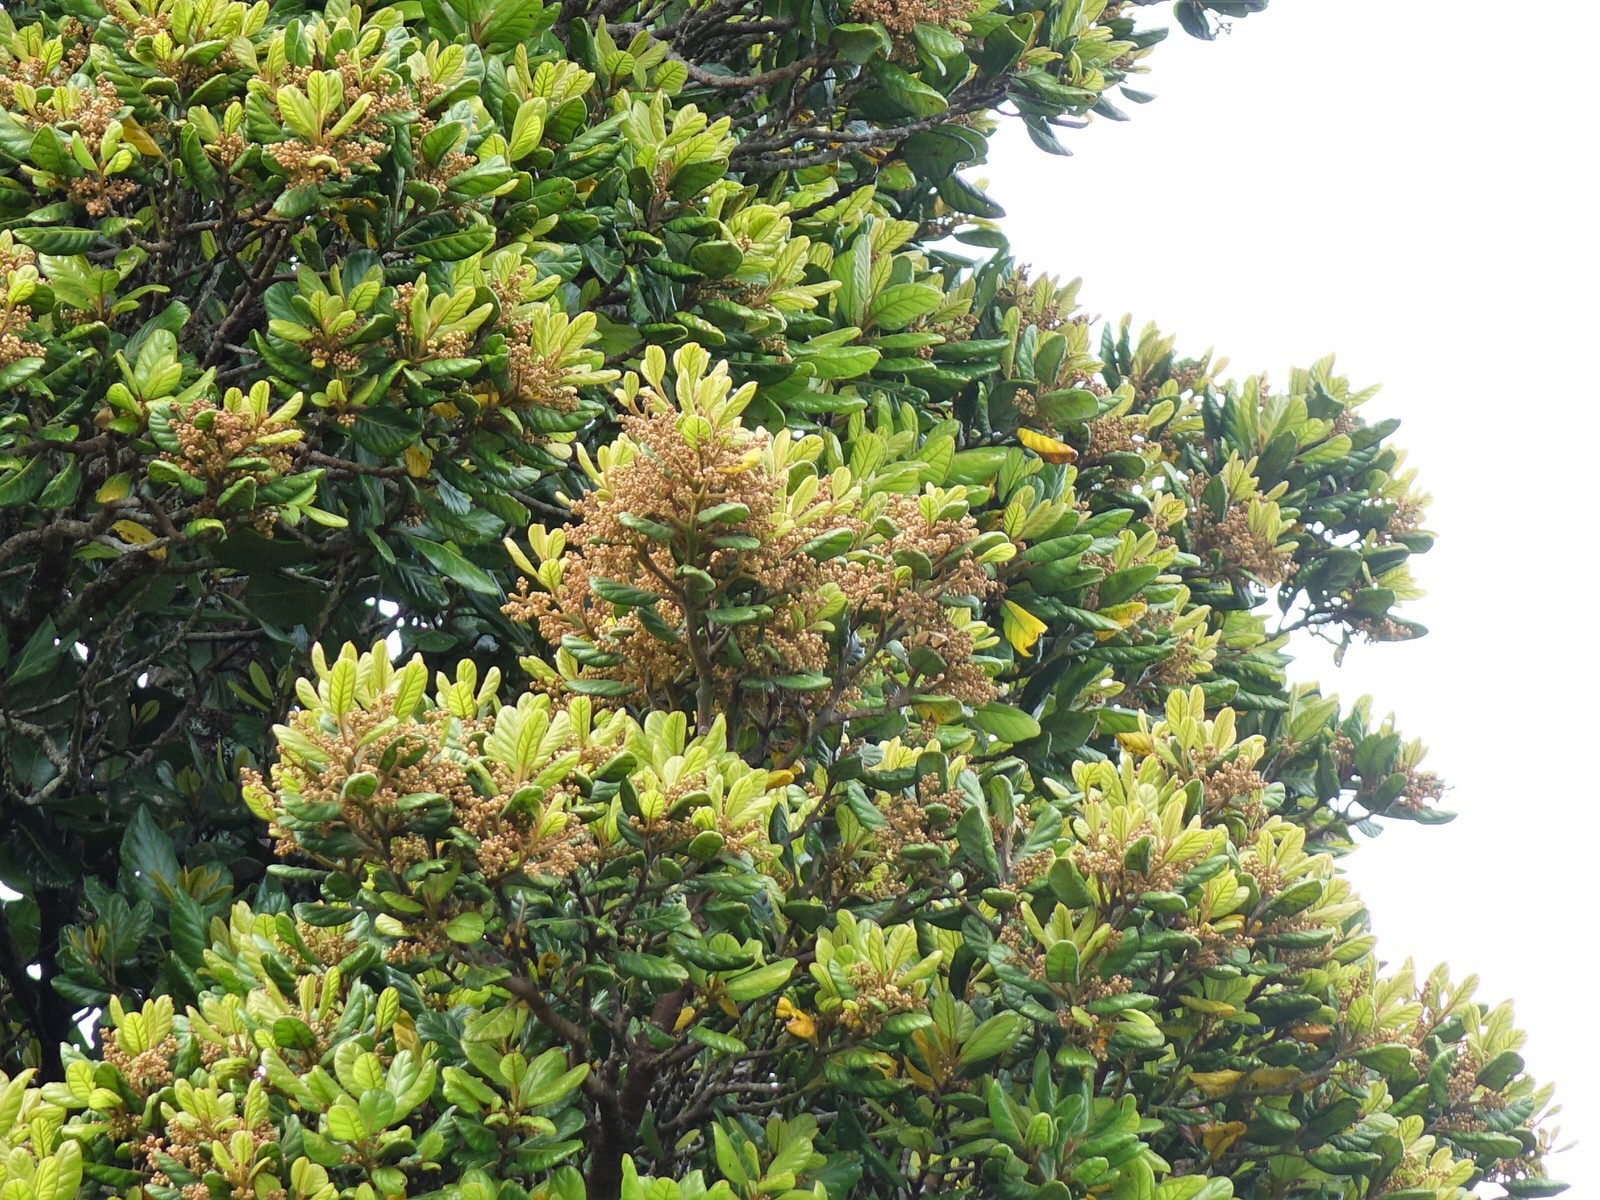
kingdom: Plantae
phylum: Tracheophyta
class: Magnoliopsida
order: Laurales
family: Lauraceae
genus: Beilschmiedia
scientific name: Beilschmiedia tarairi
